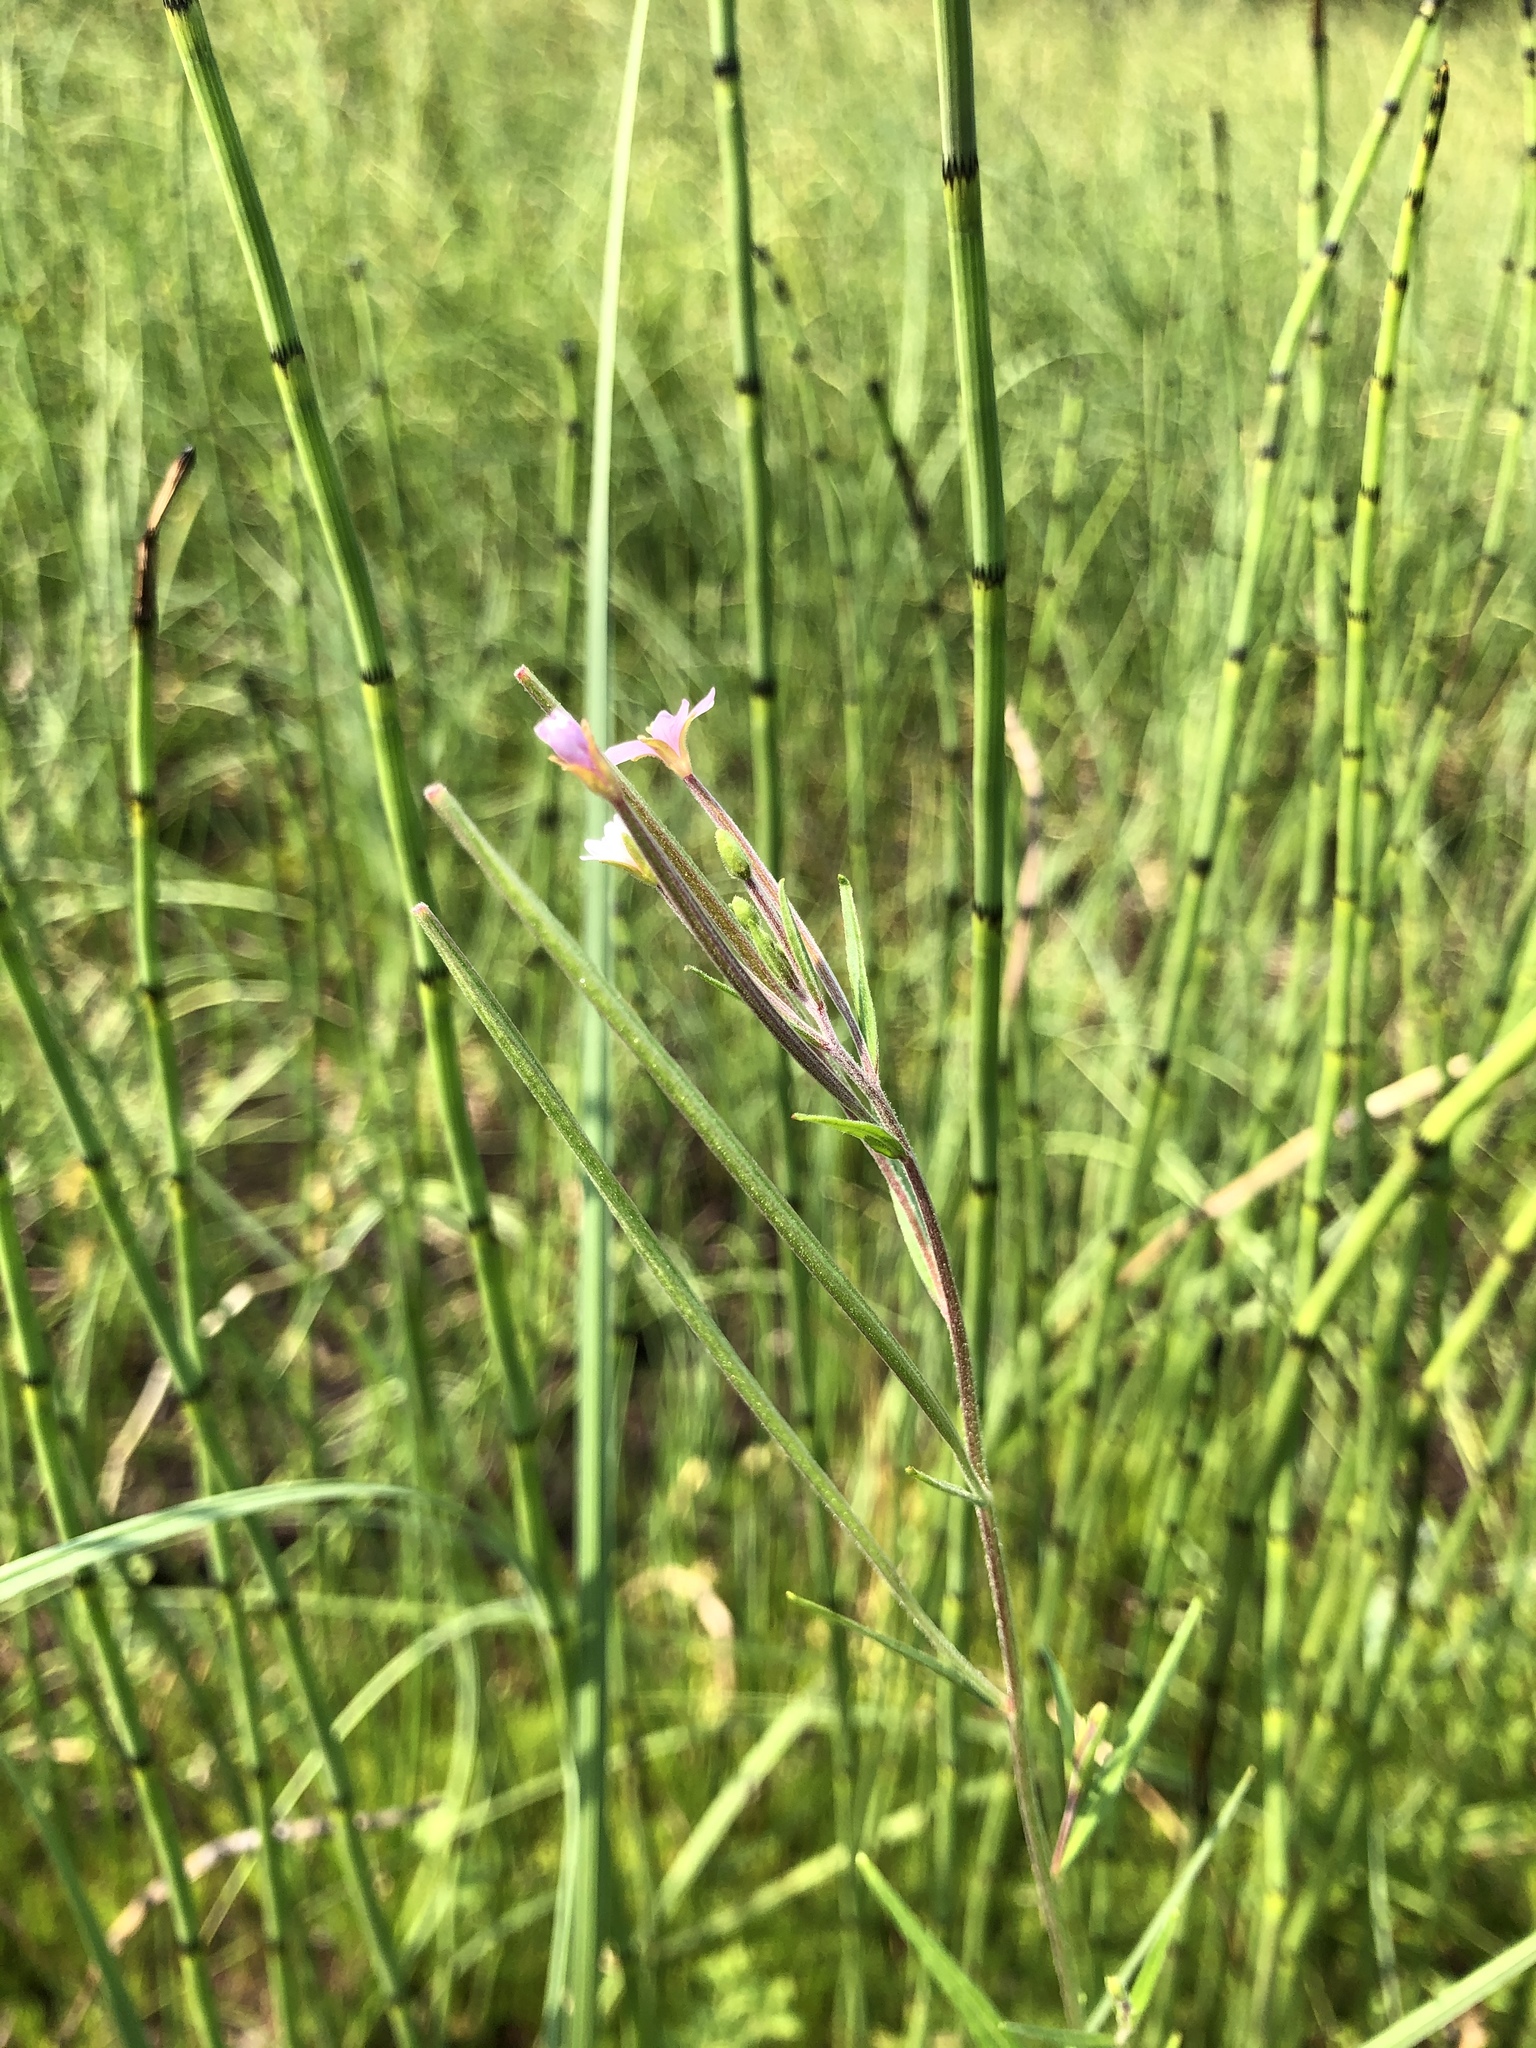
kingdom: Plantae
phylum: Tracheophyta
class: Magnoliopsida
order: Myrtales
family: Onagraceae
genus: Epilobium
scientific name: Epilobium palustre
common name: Marsh willowherb
